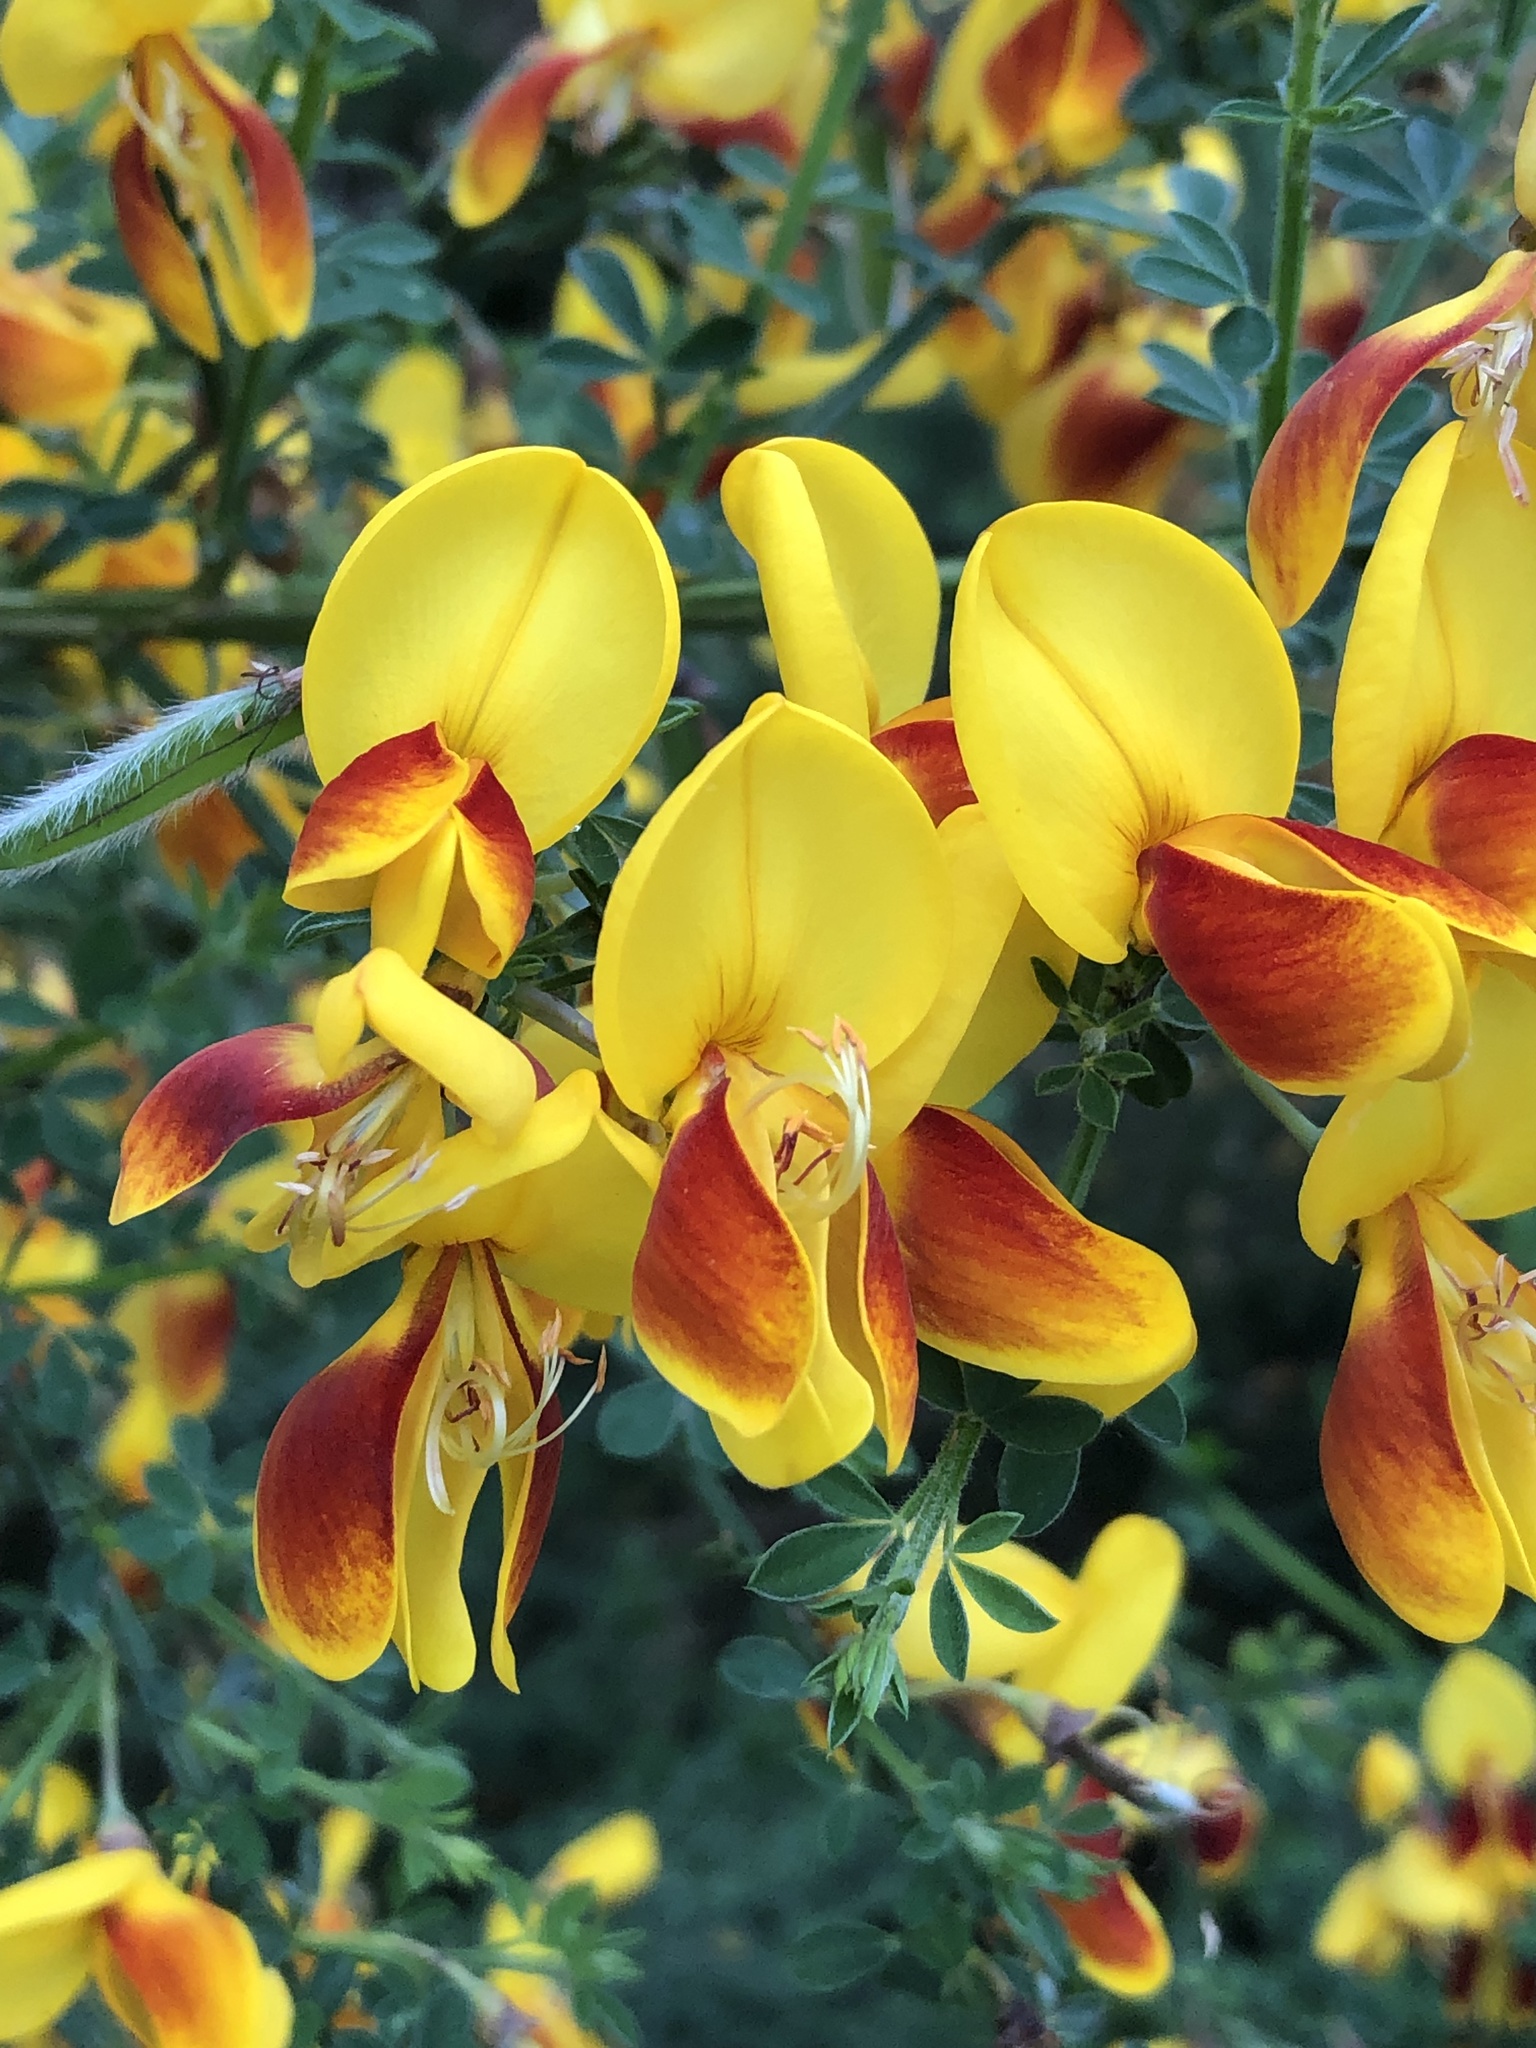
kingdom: Plantae
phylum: Tracheophyta
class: Magnoliopsida
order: Fabales
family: Fabaceae
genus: Cytisus
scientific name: Cytisus scoparius
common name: Scotch broom
